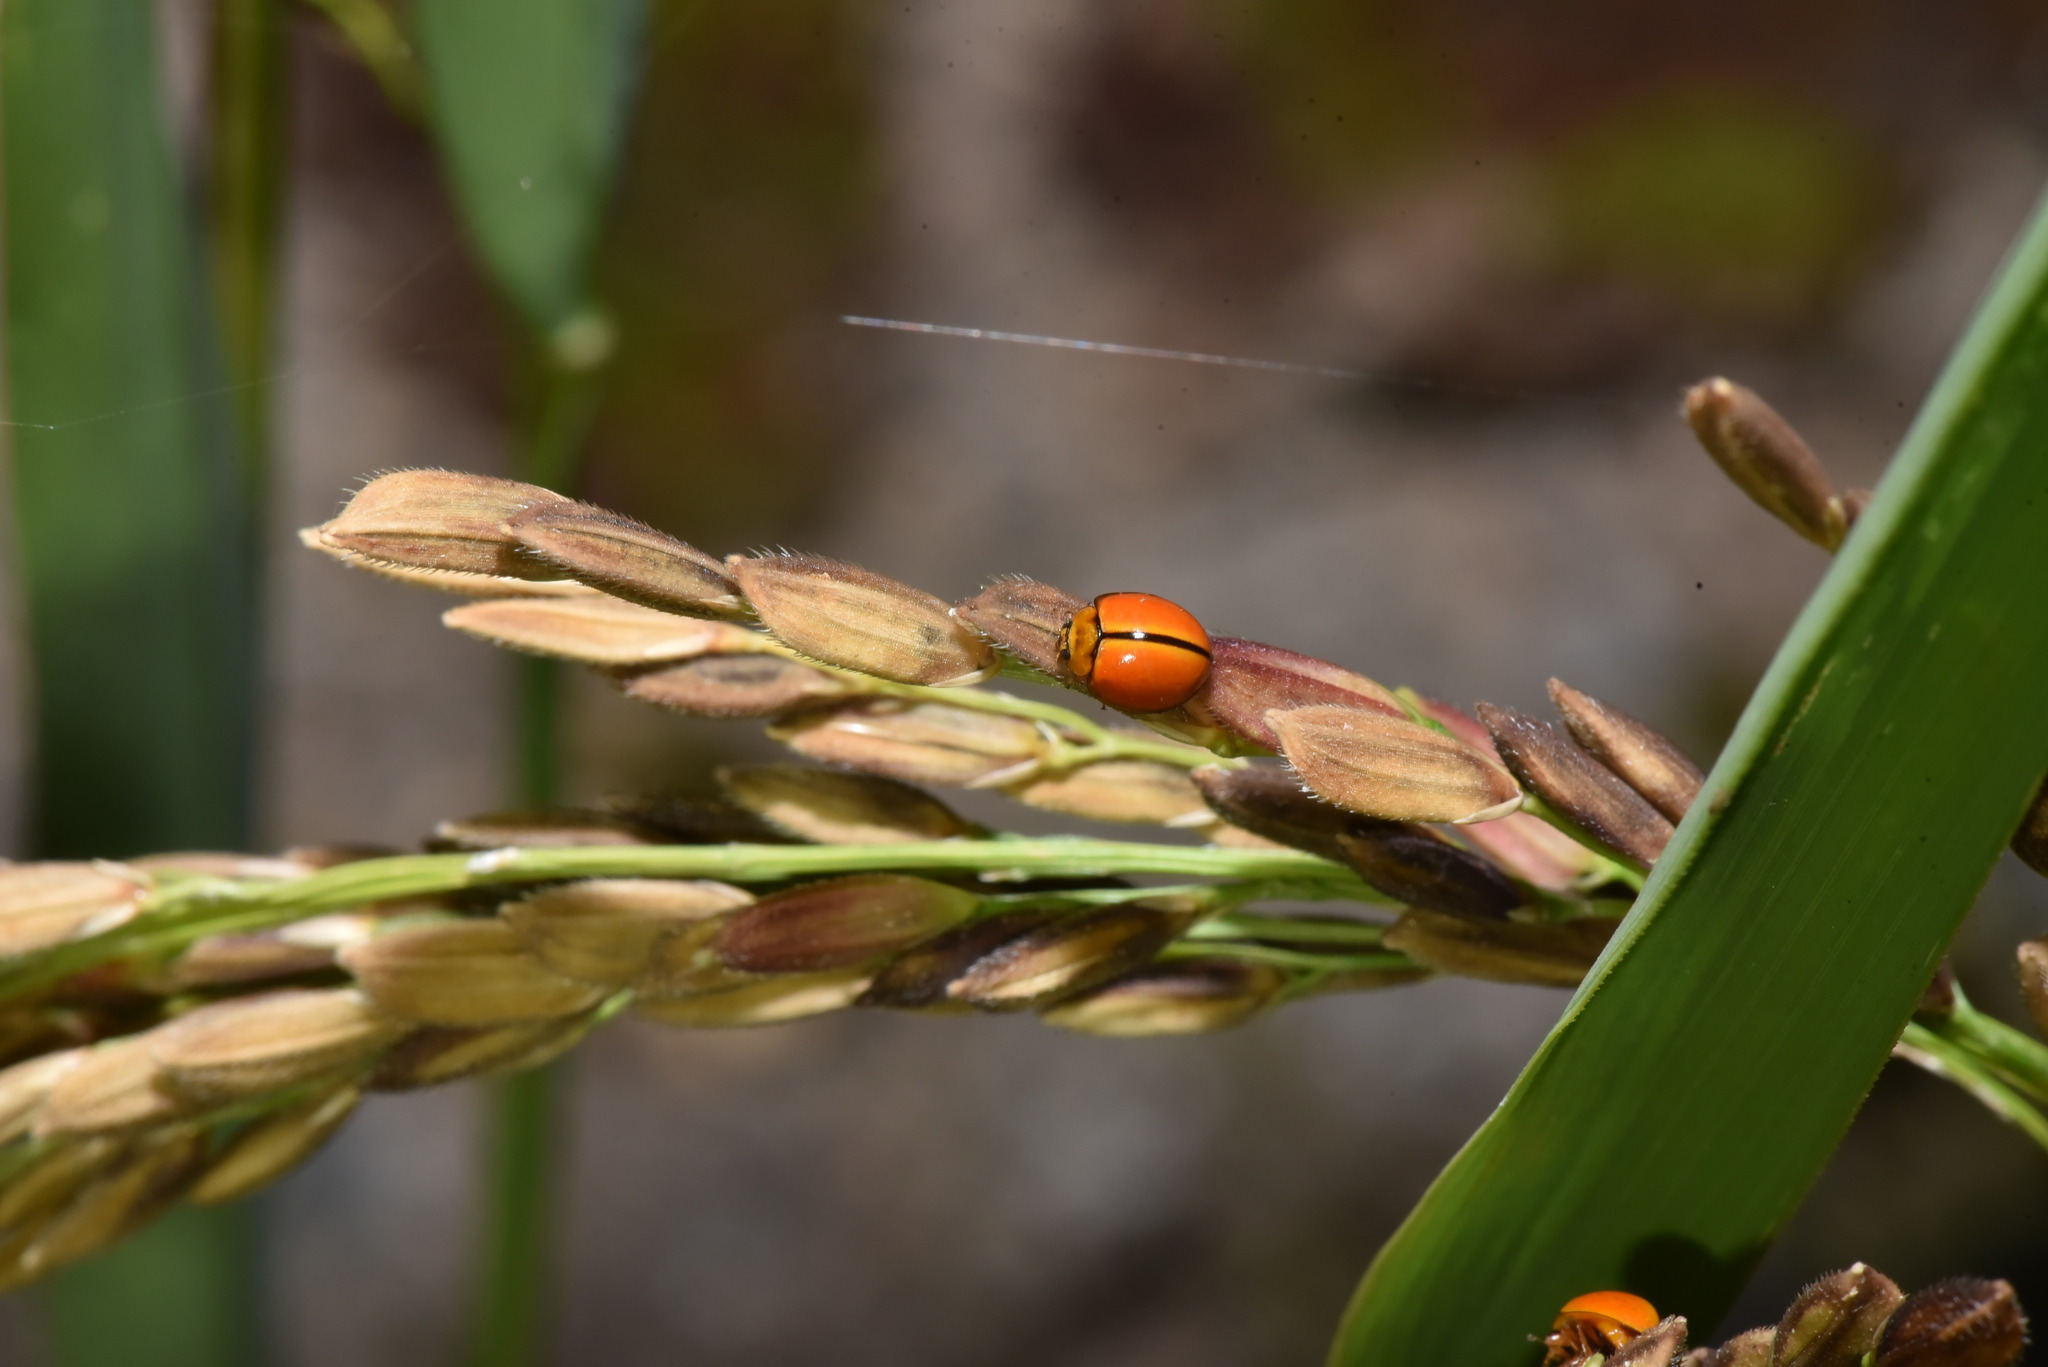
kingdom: Animalia
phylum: Arthropoda
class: Insecta
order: Coleoptera
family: Coccinellidae
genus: Micraspis
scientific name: Micraspis discolor
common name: Lady beetle
